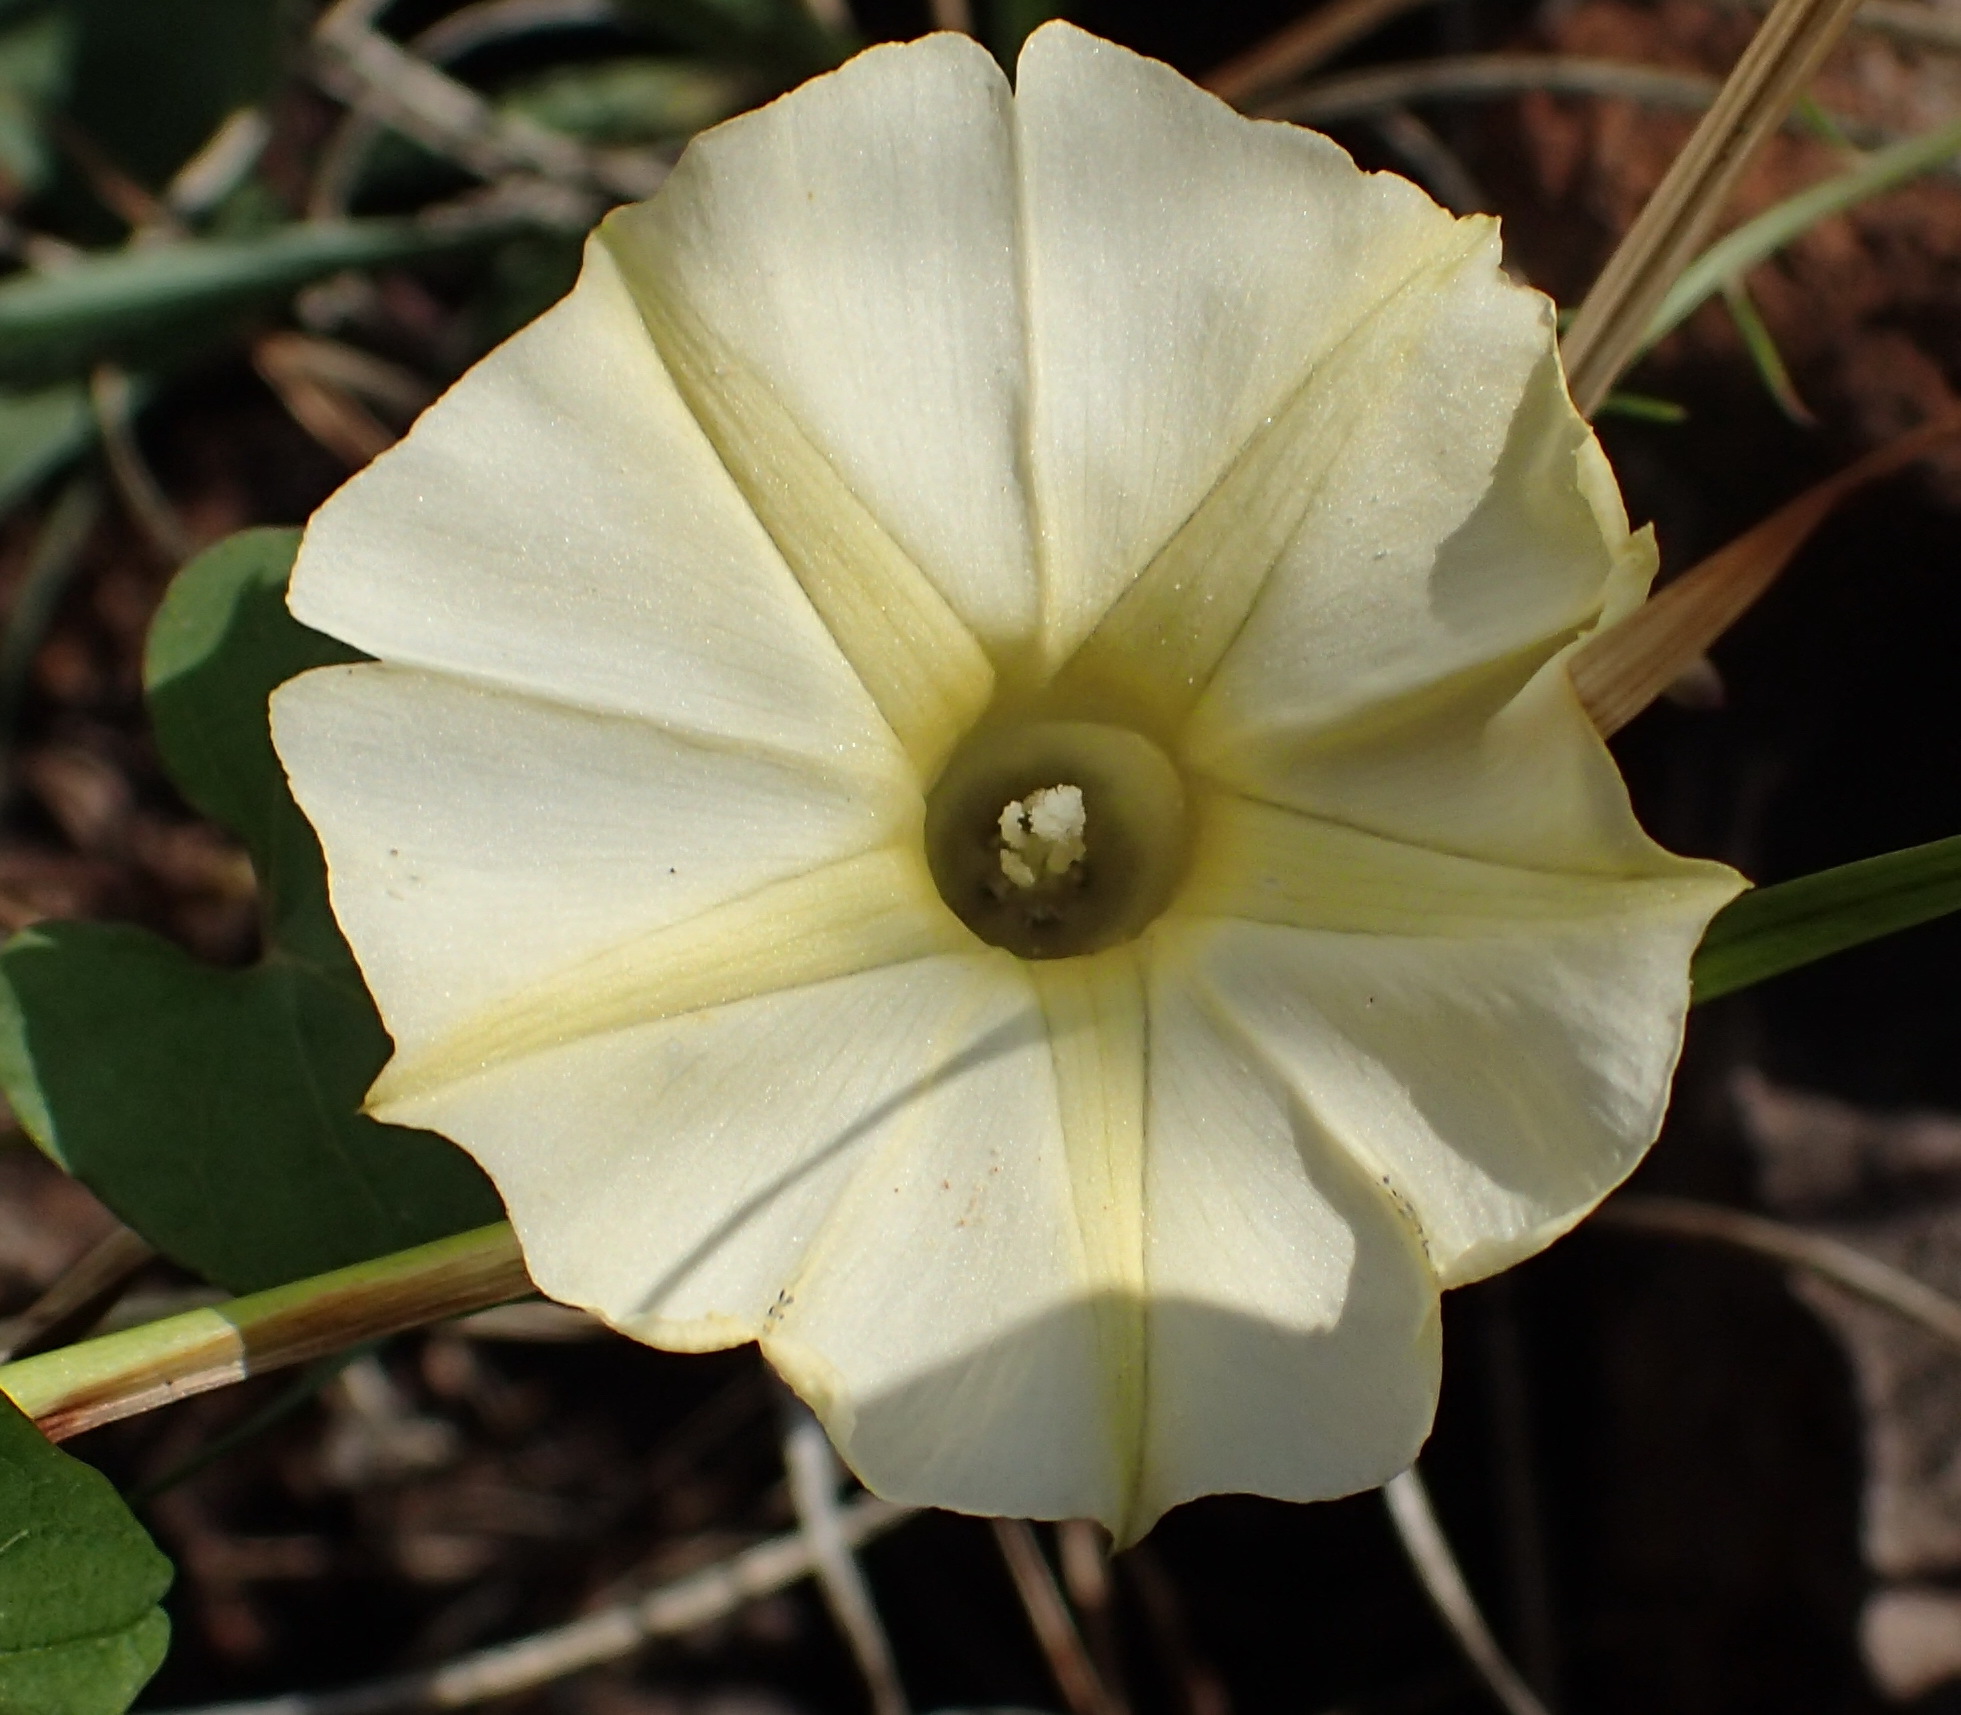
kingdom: Plantae
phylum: Tracheophyta
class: Magnoliopsida
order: Solanales
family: Convolvulaceae
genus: Ipomoea
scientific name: Ipomoea obscura
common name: Obscure morning-glory
